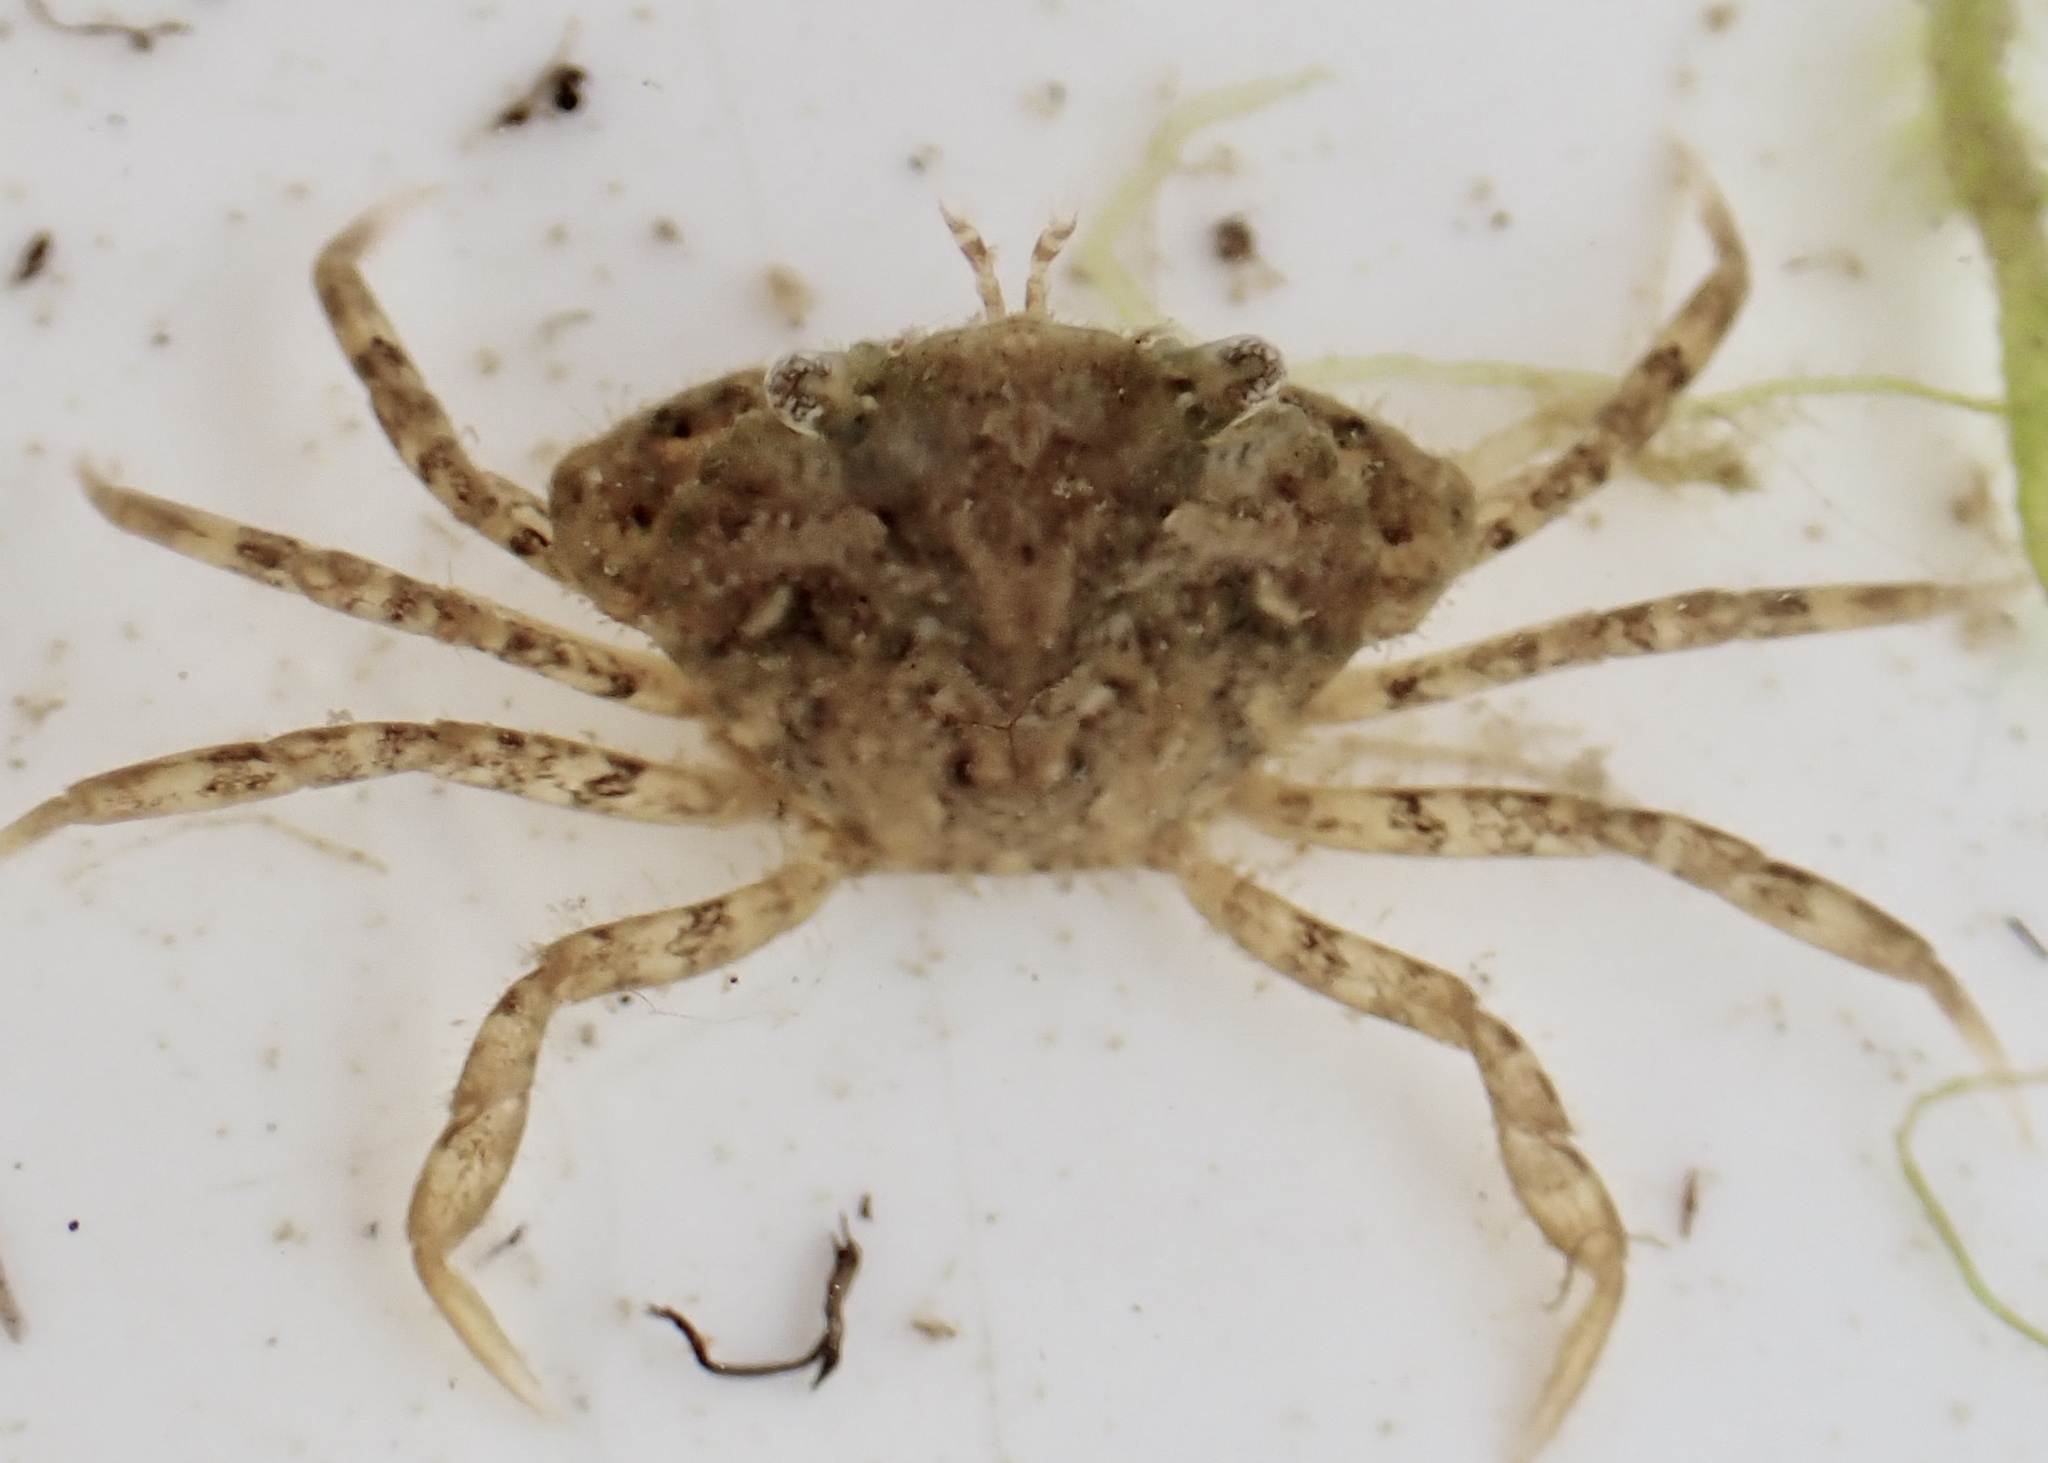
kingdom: Animalia
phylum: Arthropoda
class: Malacostraca
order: Decapoda
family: Carcinidae
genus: Carcinus
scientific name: Carcinus maenas
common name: European green crab
